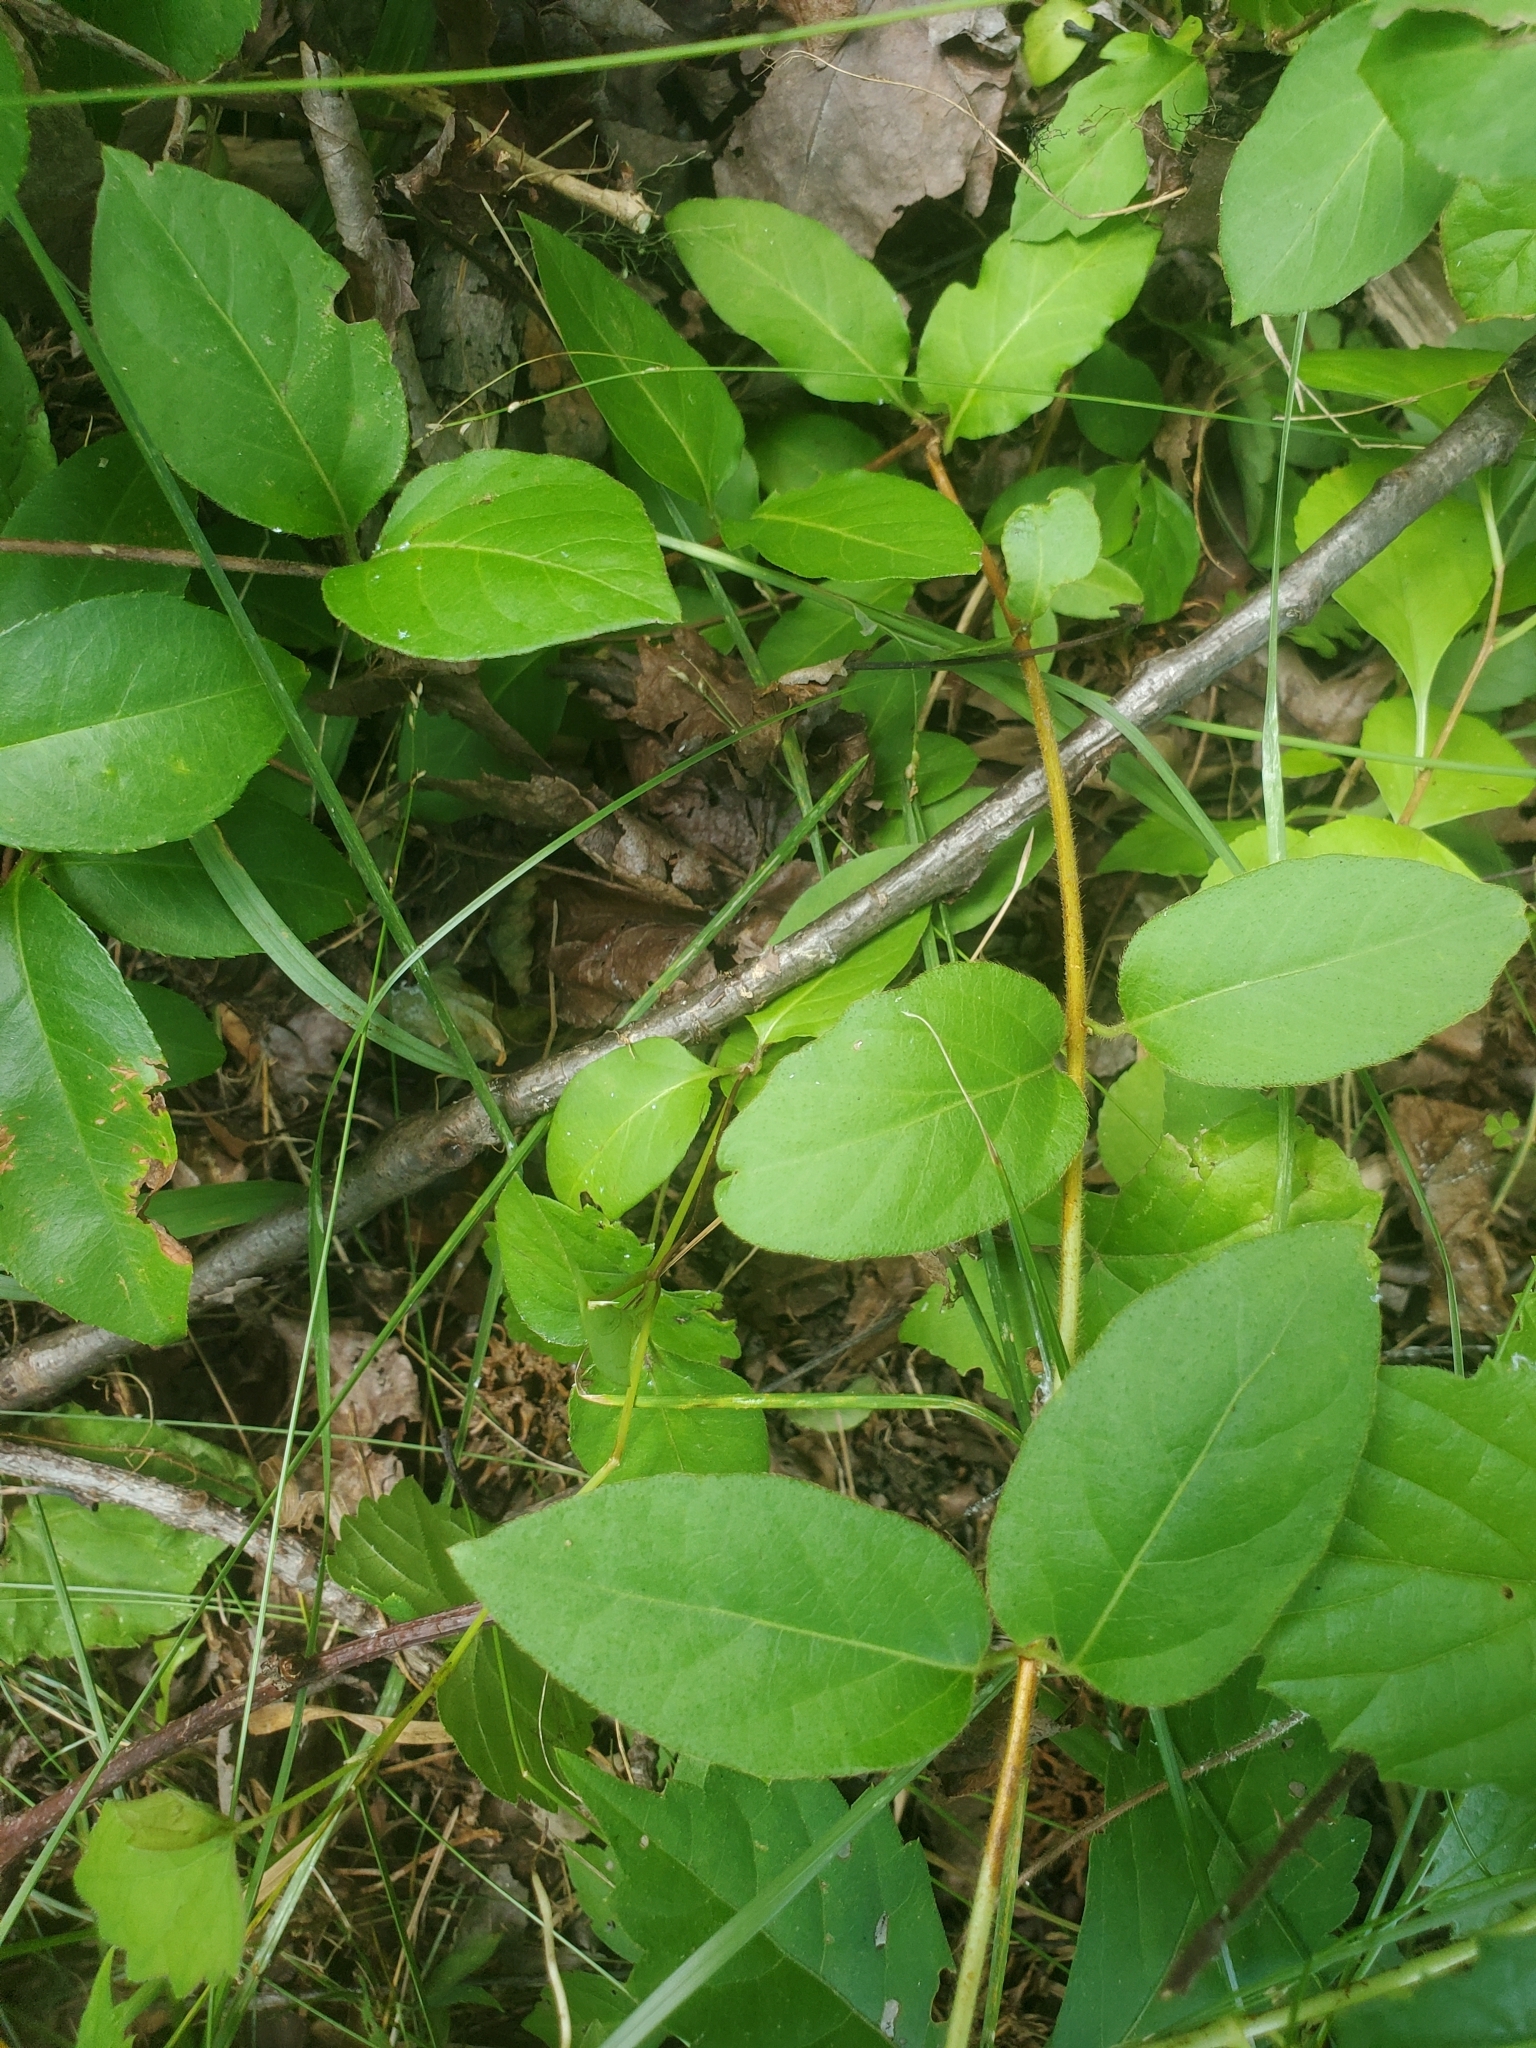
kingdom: Plantae
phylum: Tracheophyta
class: Magnoliopsida
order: Dipsacales
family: Caprifoliaceae
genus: Lonicera
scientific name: Lonicera japonica
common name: Japanese honeysuckle
